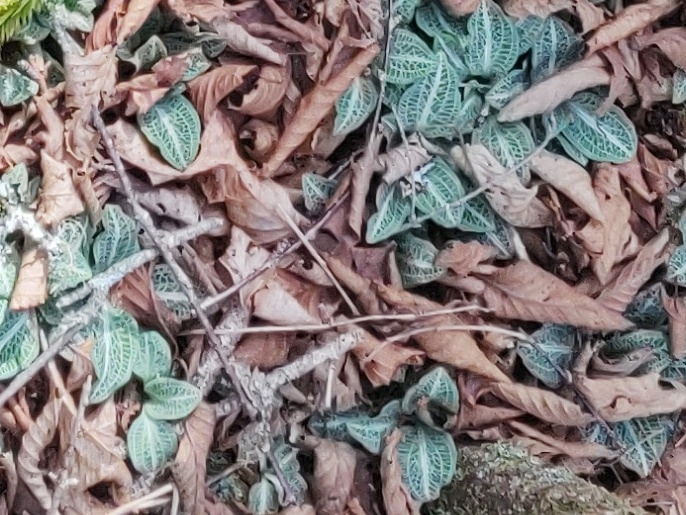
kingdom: Plantae
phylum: Tracheophyta
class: Liliopsida
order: Asparagales
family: Orchidaceae
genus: Goodyera
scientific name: Goodyera pubescens
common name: Downy rattlesnake-plantain
